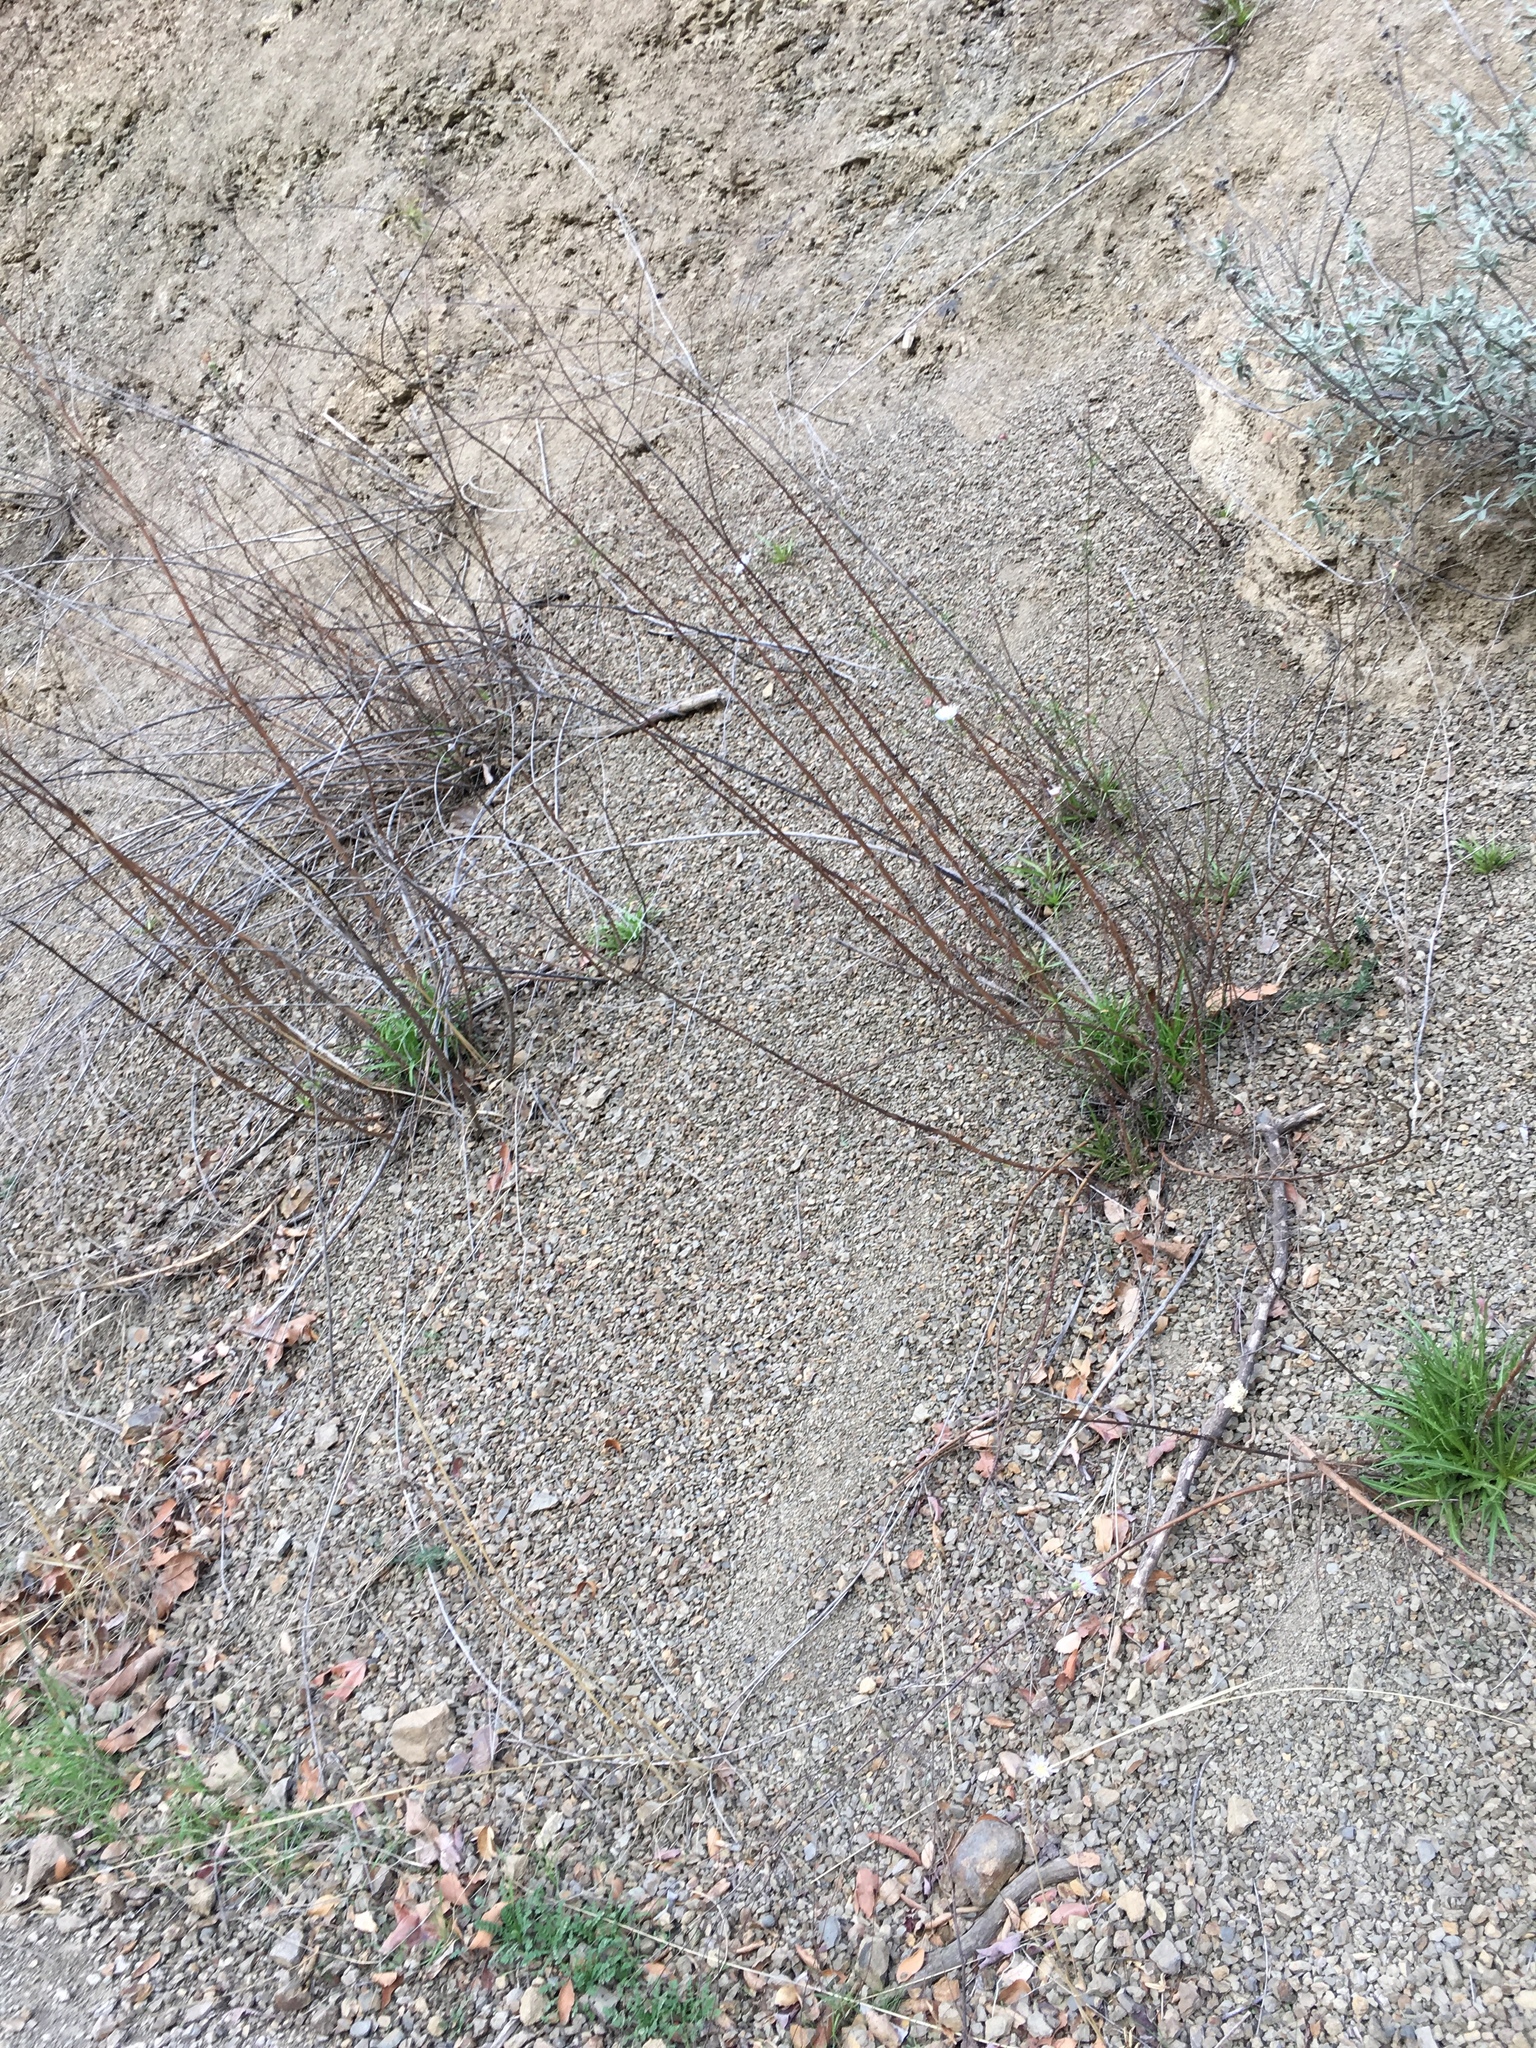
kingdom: Plantae
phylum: Tracheophyta
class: Magnoliopsida
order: Asterales
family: Asteraceae
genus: Malacothrix
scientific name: Malacothrix saxatilis
